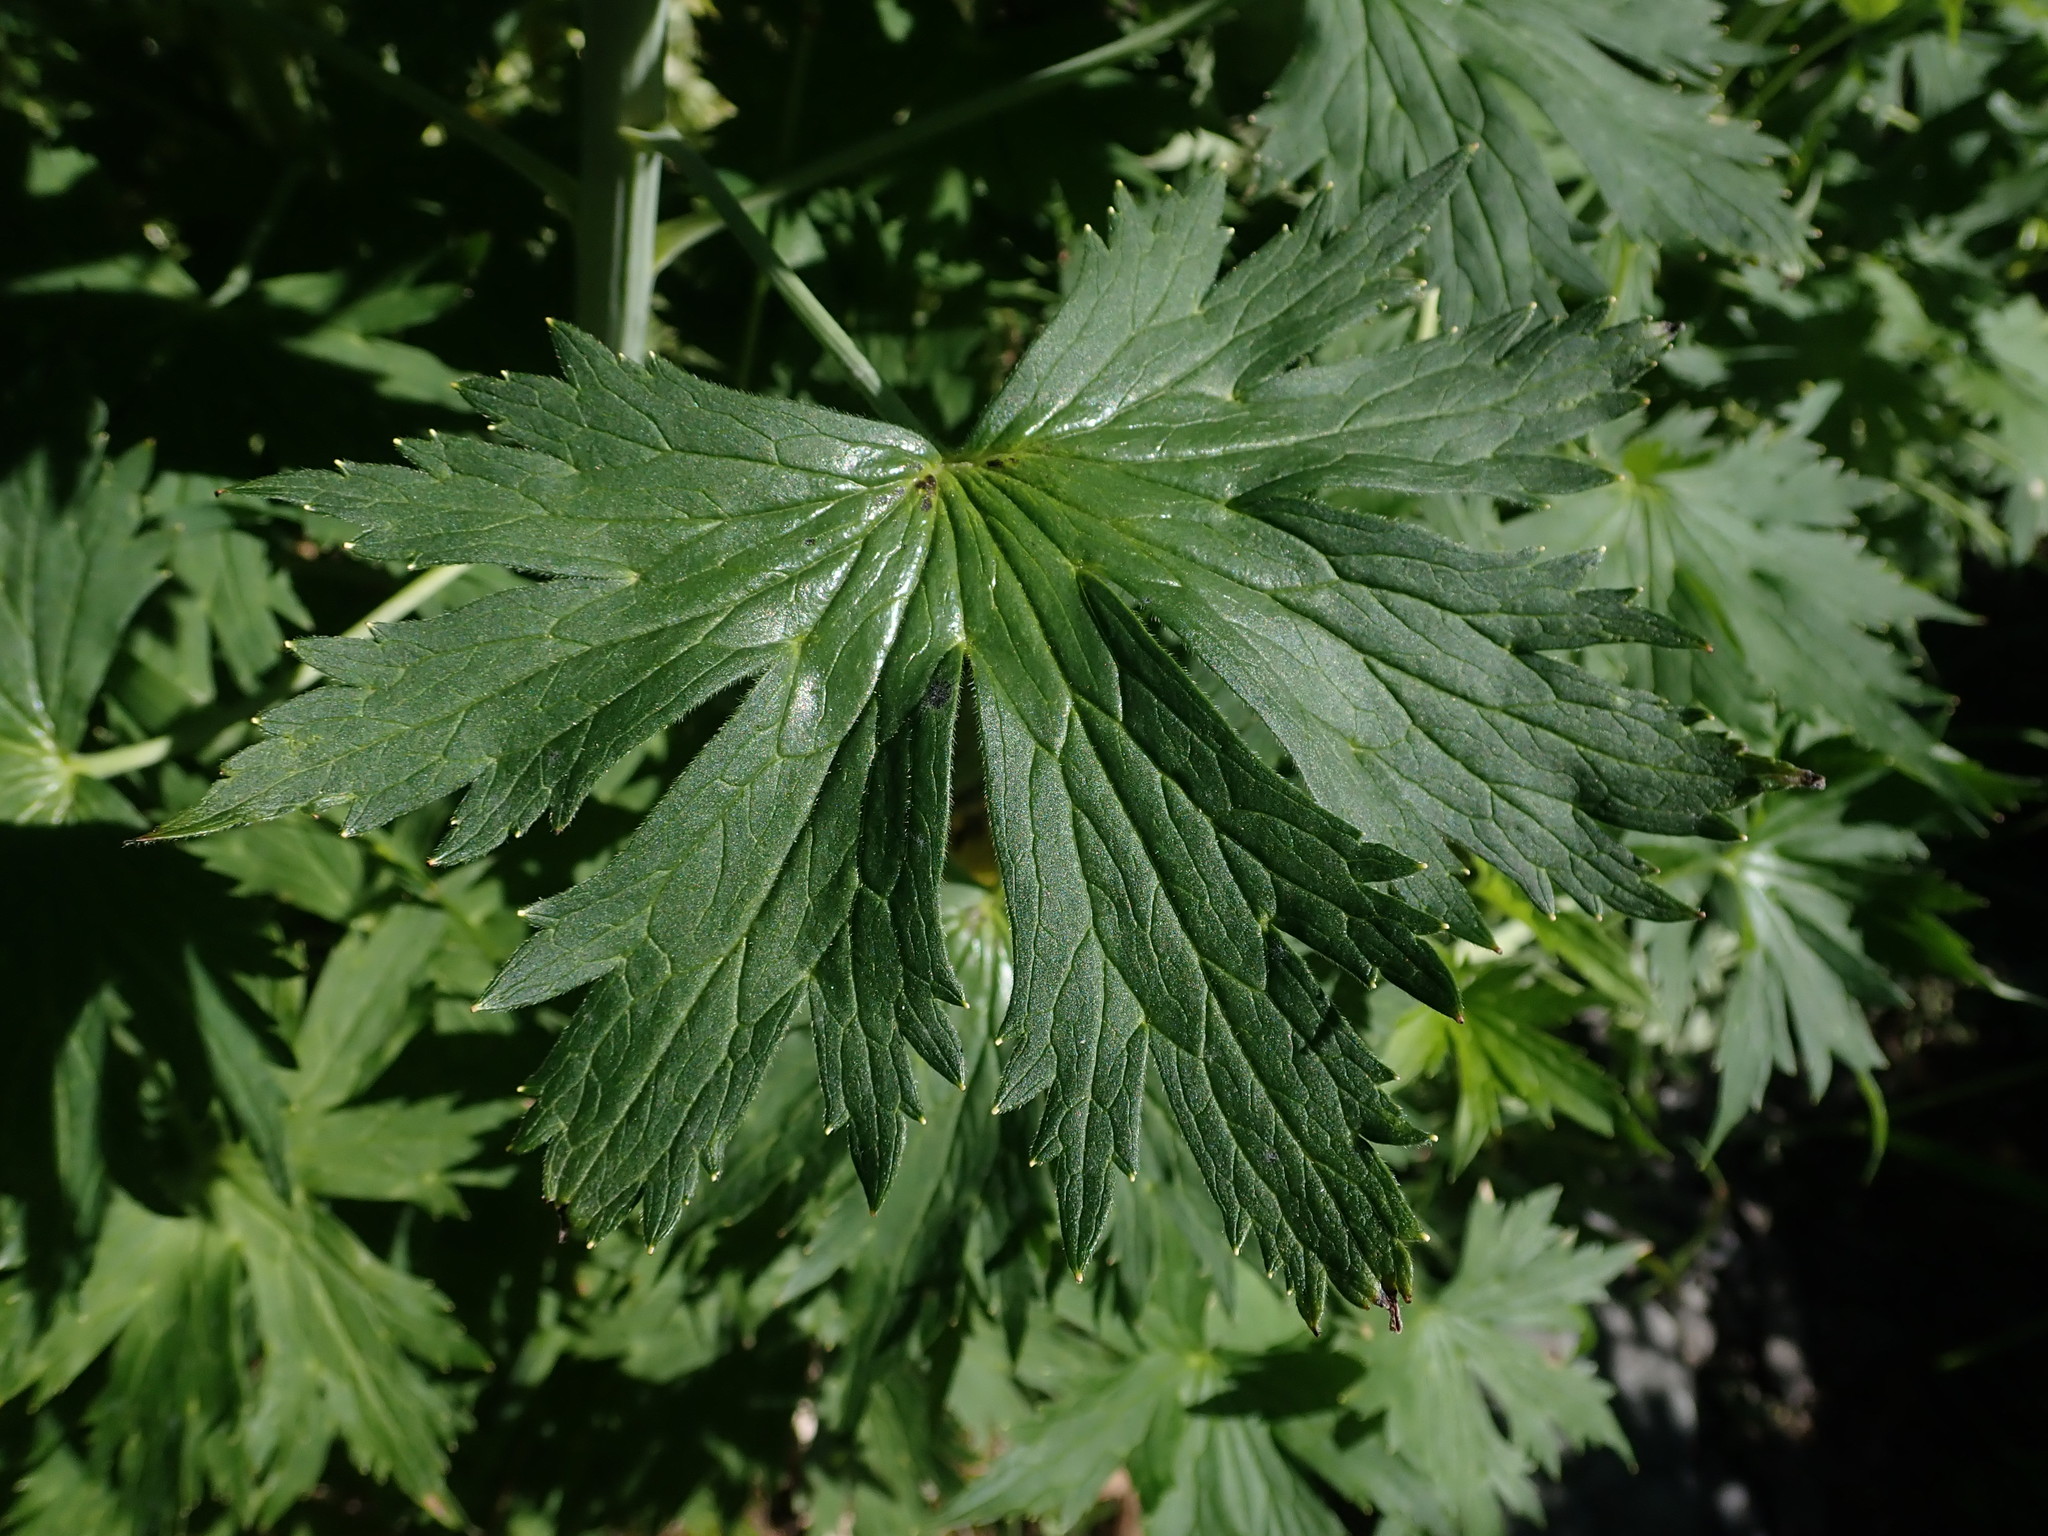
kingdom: Plantae
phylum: Tracheophyta
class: Magnoliopsida
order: Ranunculales
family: Ranunculaceae
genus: Delphinium
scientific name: Delphinium glaucum
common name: Brown's larkspur
